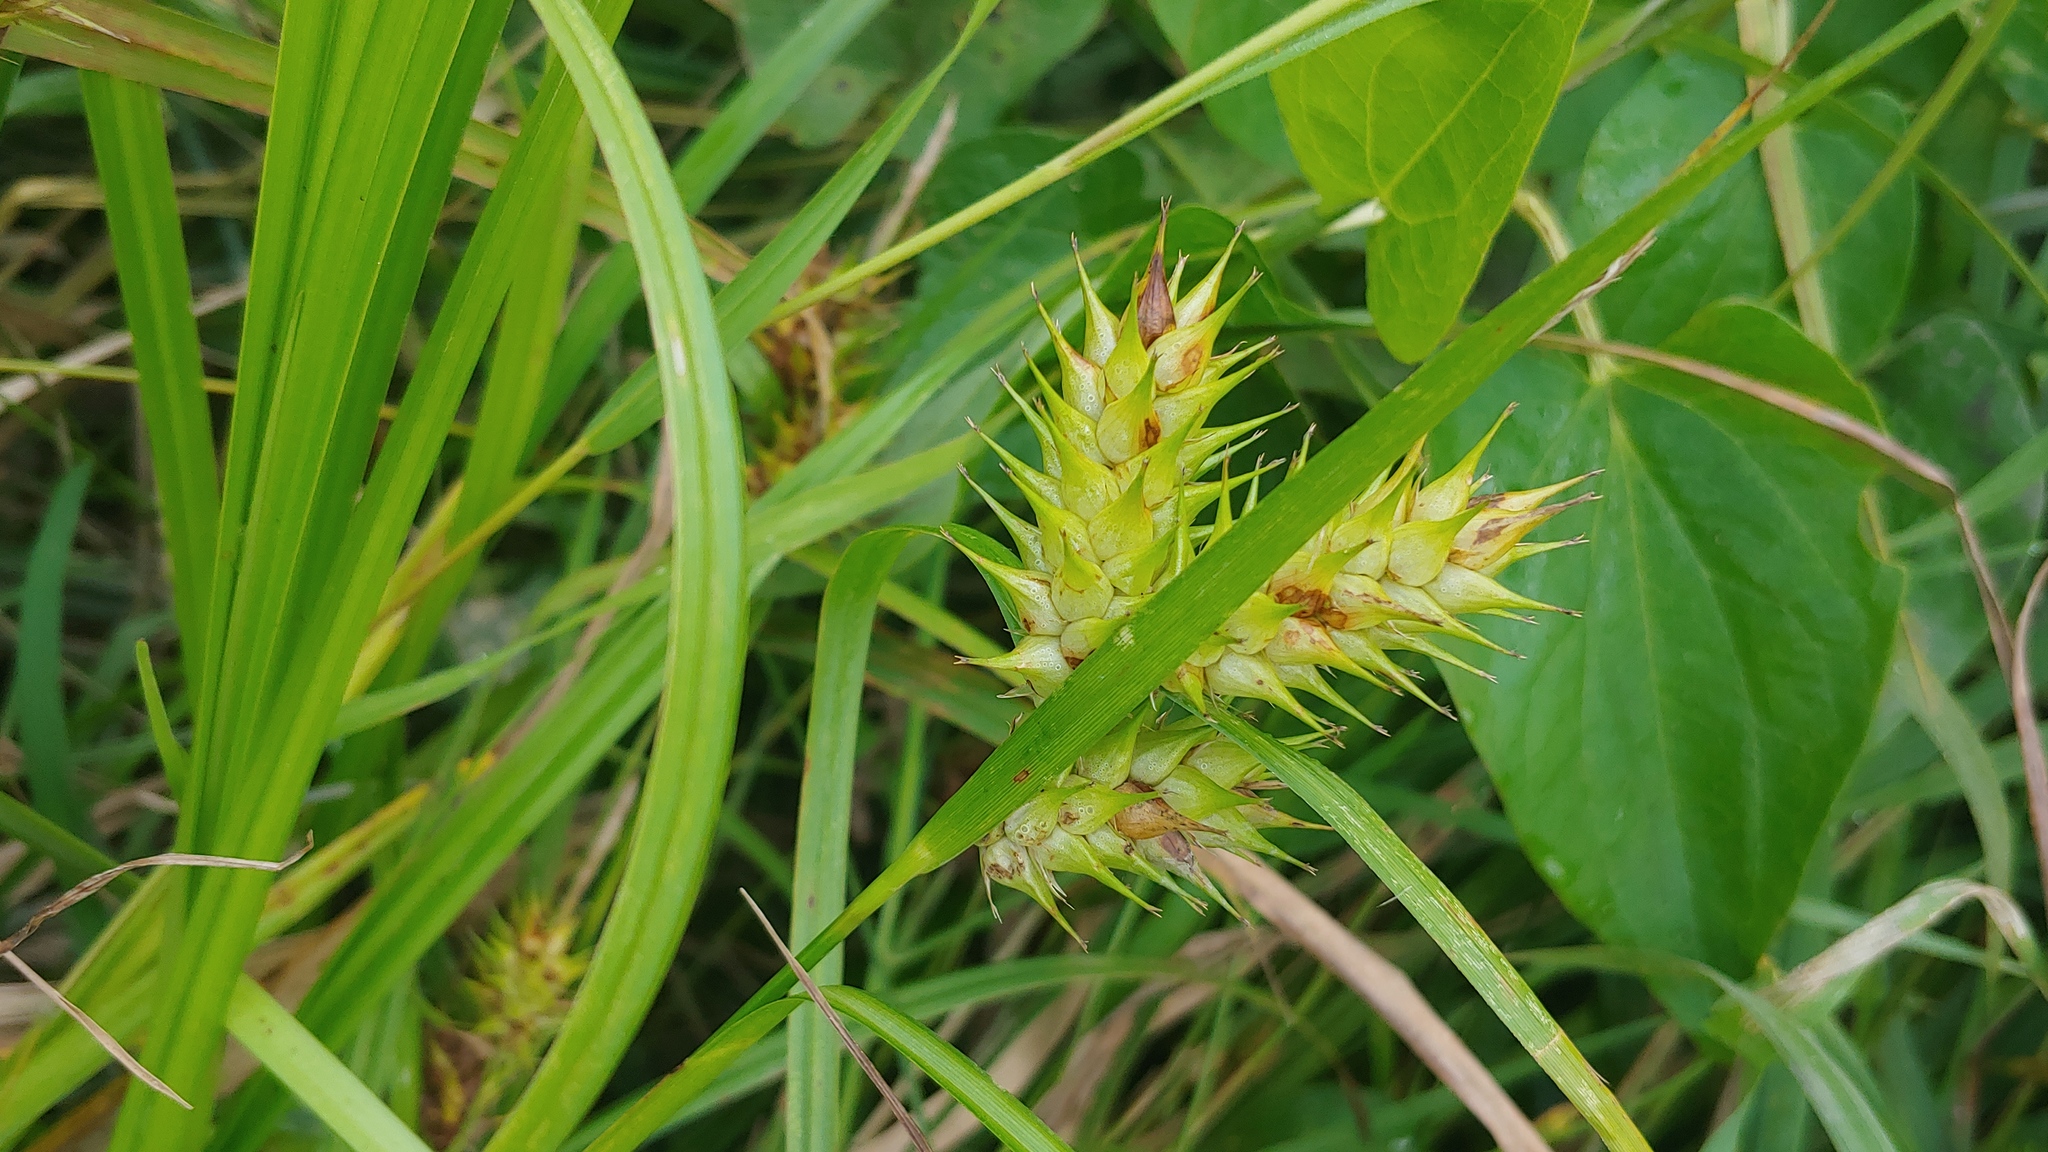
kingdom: Plantae
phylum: Tracheophyta
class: Liliopsida
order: Poales
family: Cyperaceae
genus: Carex
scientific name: Carex lupulina
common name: Hop sedge
